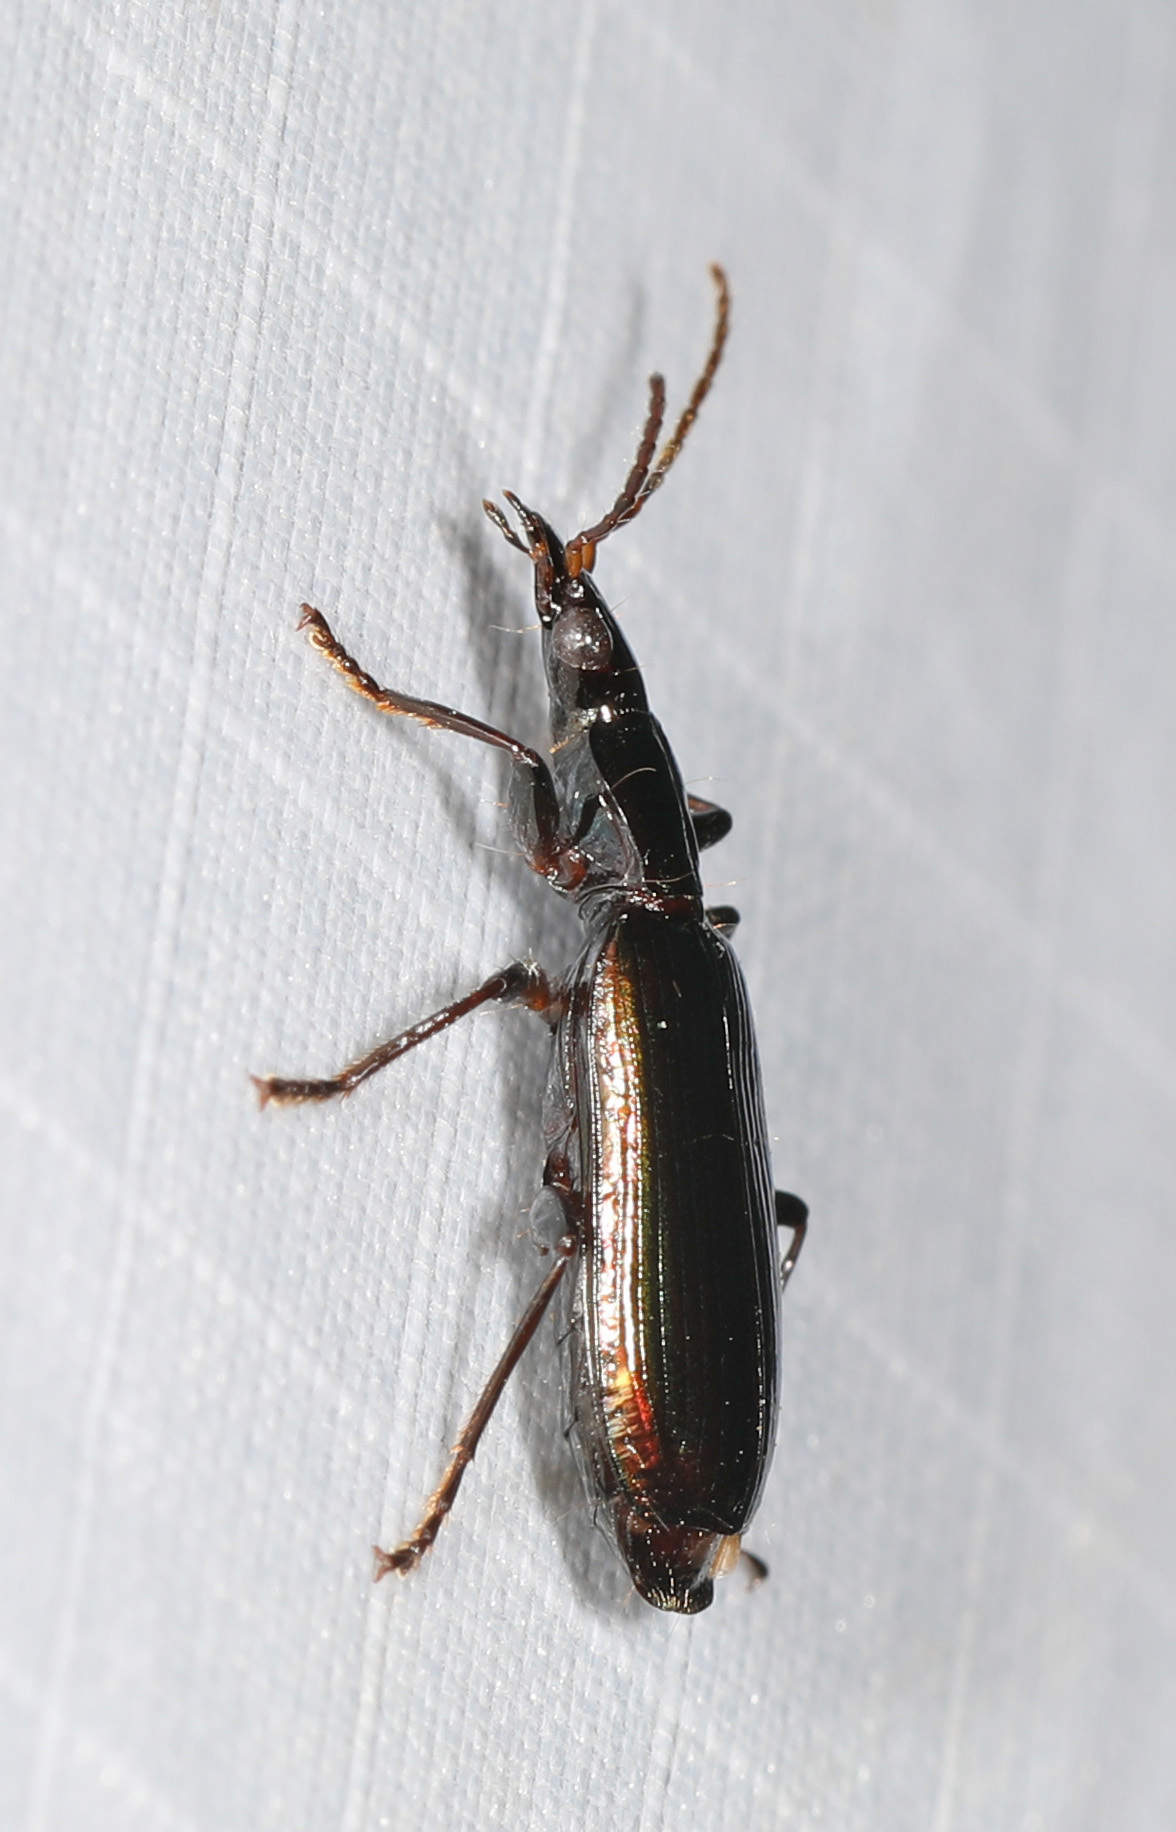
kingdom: Animalia
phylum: Arthropoda
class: Insecta
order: Coleoptera
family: Carabidae
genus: Calleida
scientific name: Calleida viridipennis
